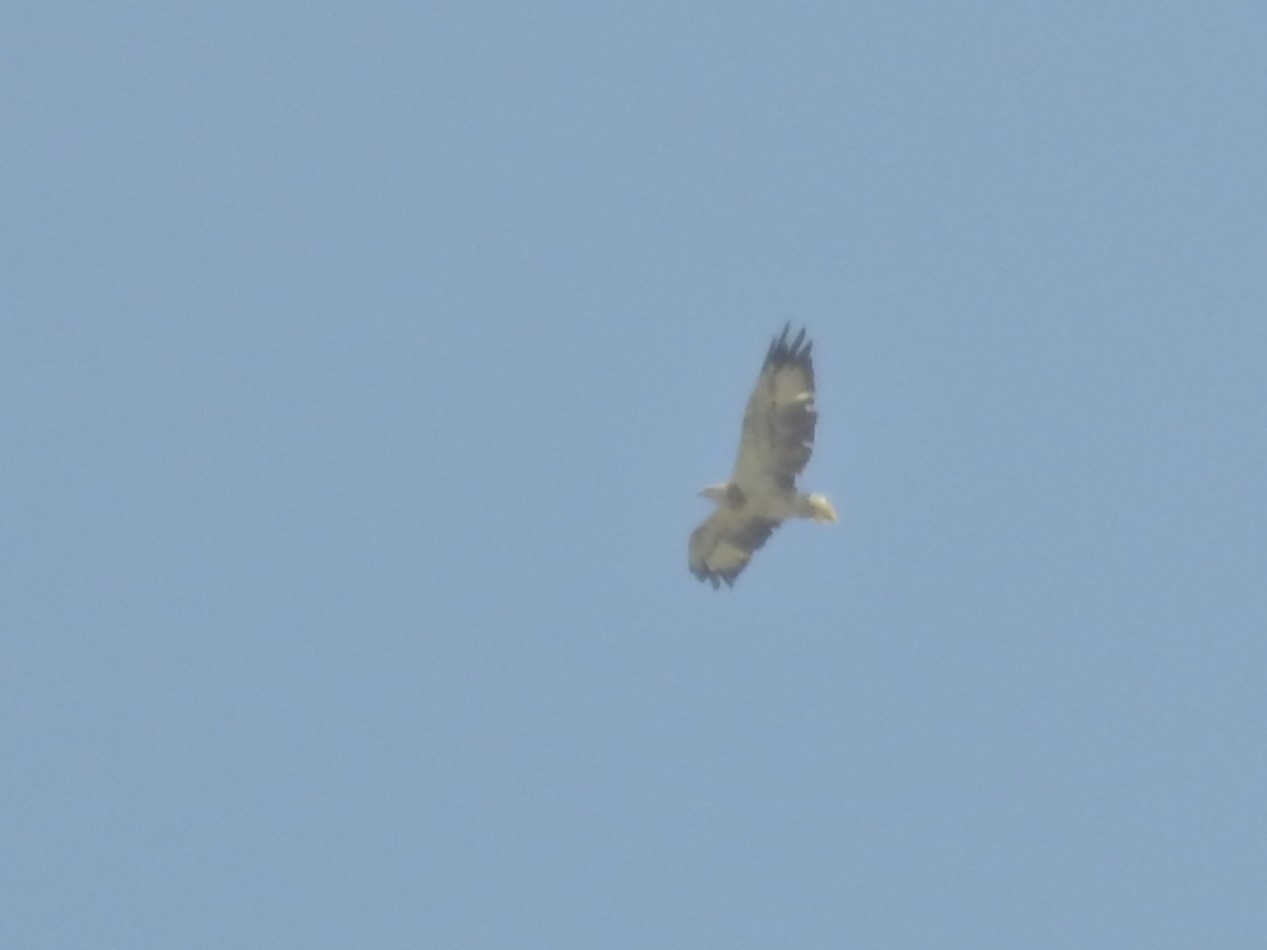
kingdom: Animalia
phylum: Chordata
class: Aves
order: Accipitriformes
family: Accipitridae
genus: Haliaeetus
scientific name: Haliaeetus leucogaster
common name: White-bellied sea eagle
